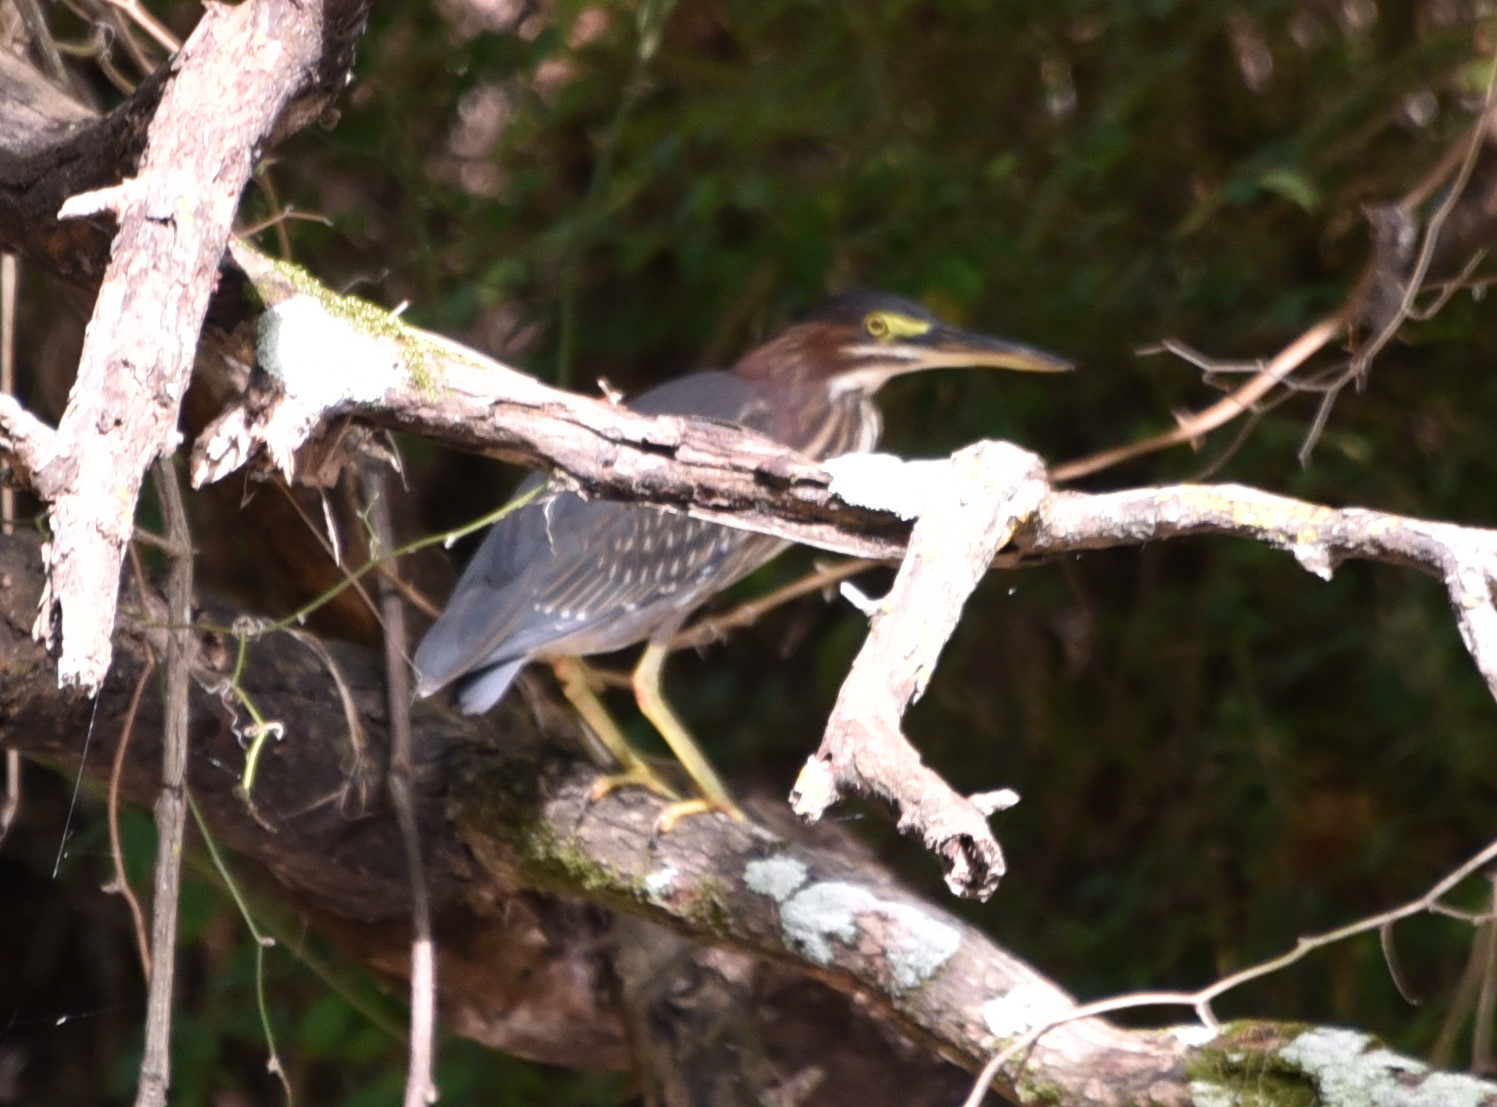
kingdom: Animalia
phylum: Chordata
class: Aves
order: Pelecaniformes
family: Ardeidae
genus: Butorides
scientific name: Butorides virescens
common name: Green heron
